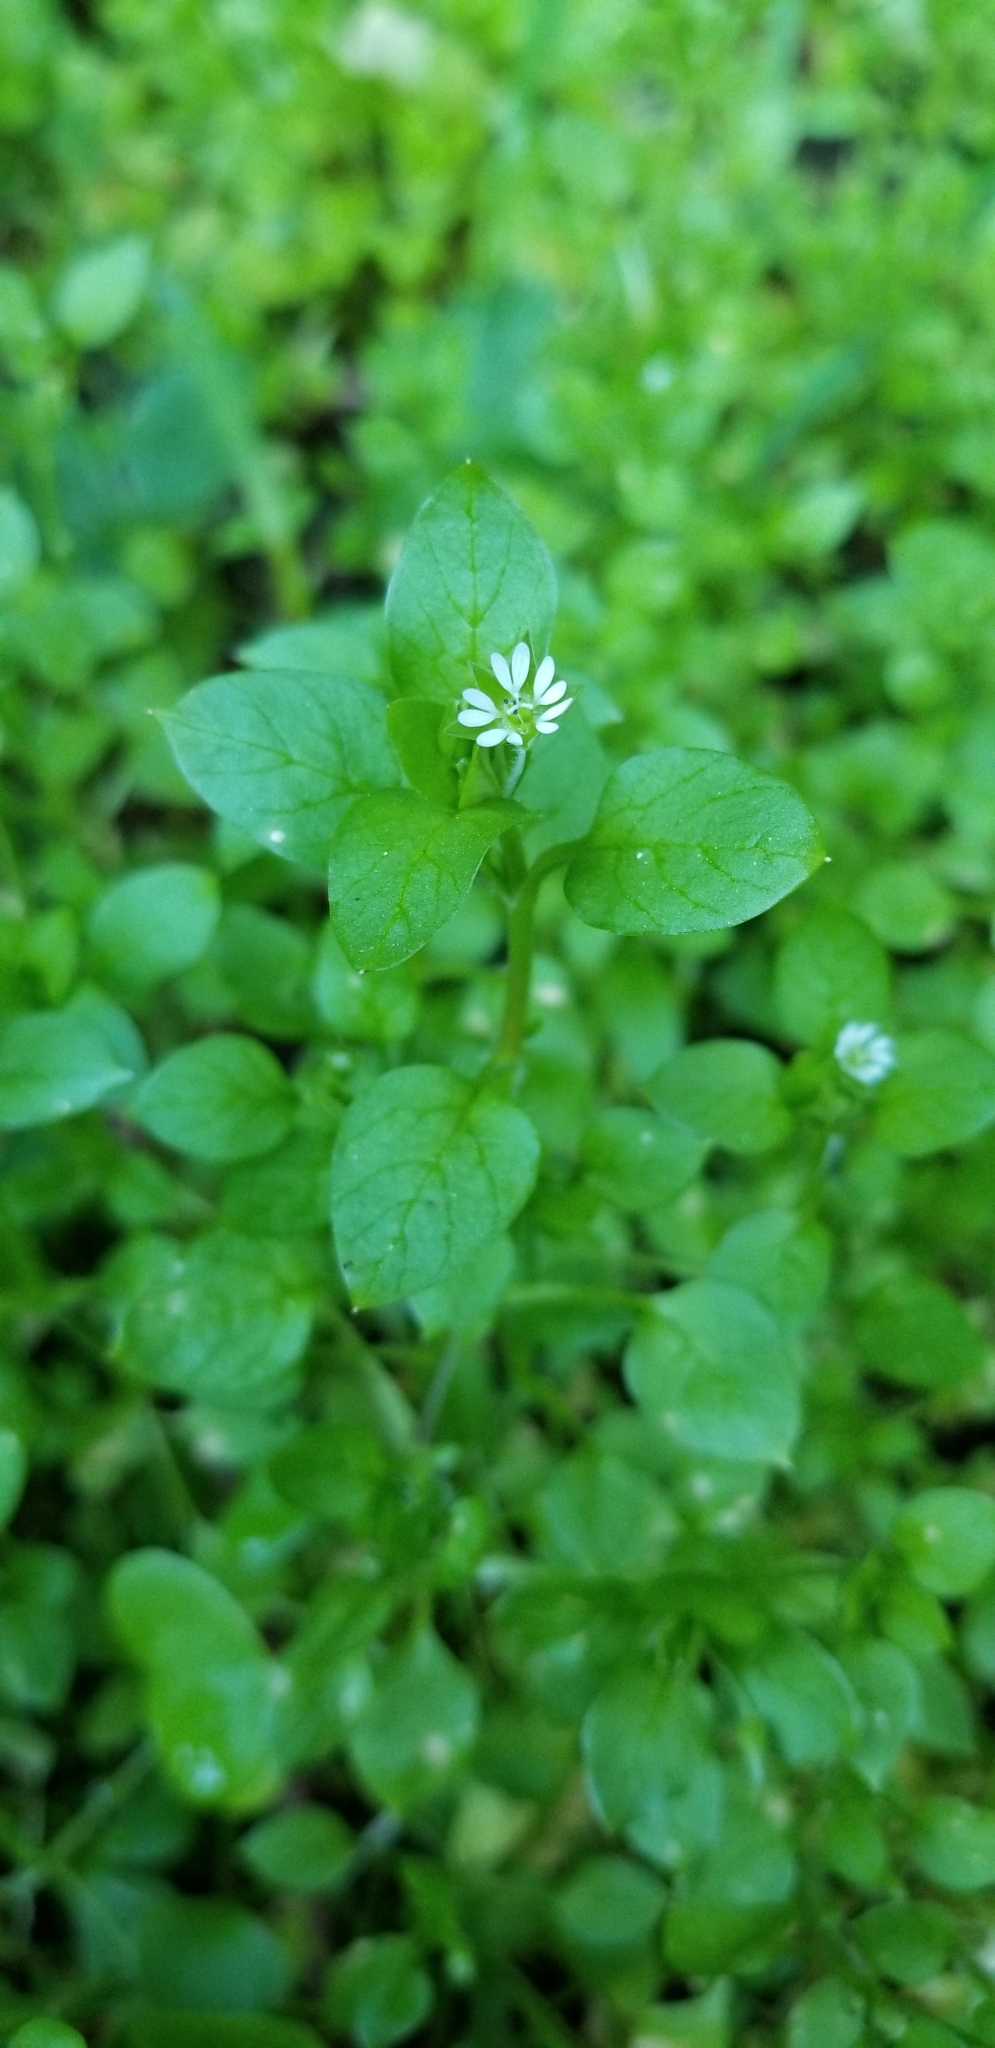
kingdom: Plantae
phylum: Tracheophyta
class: Magnoliopsida
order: Caryophyllales
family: Caryophyllaceae
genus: Stellaria
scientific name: Stellaria media
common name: Common chickweed
